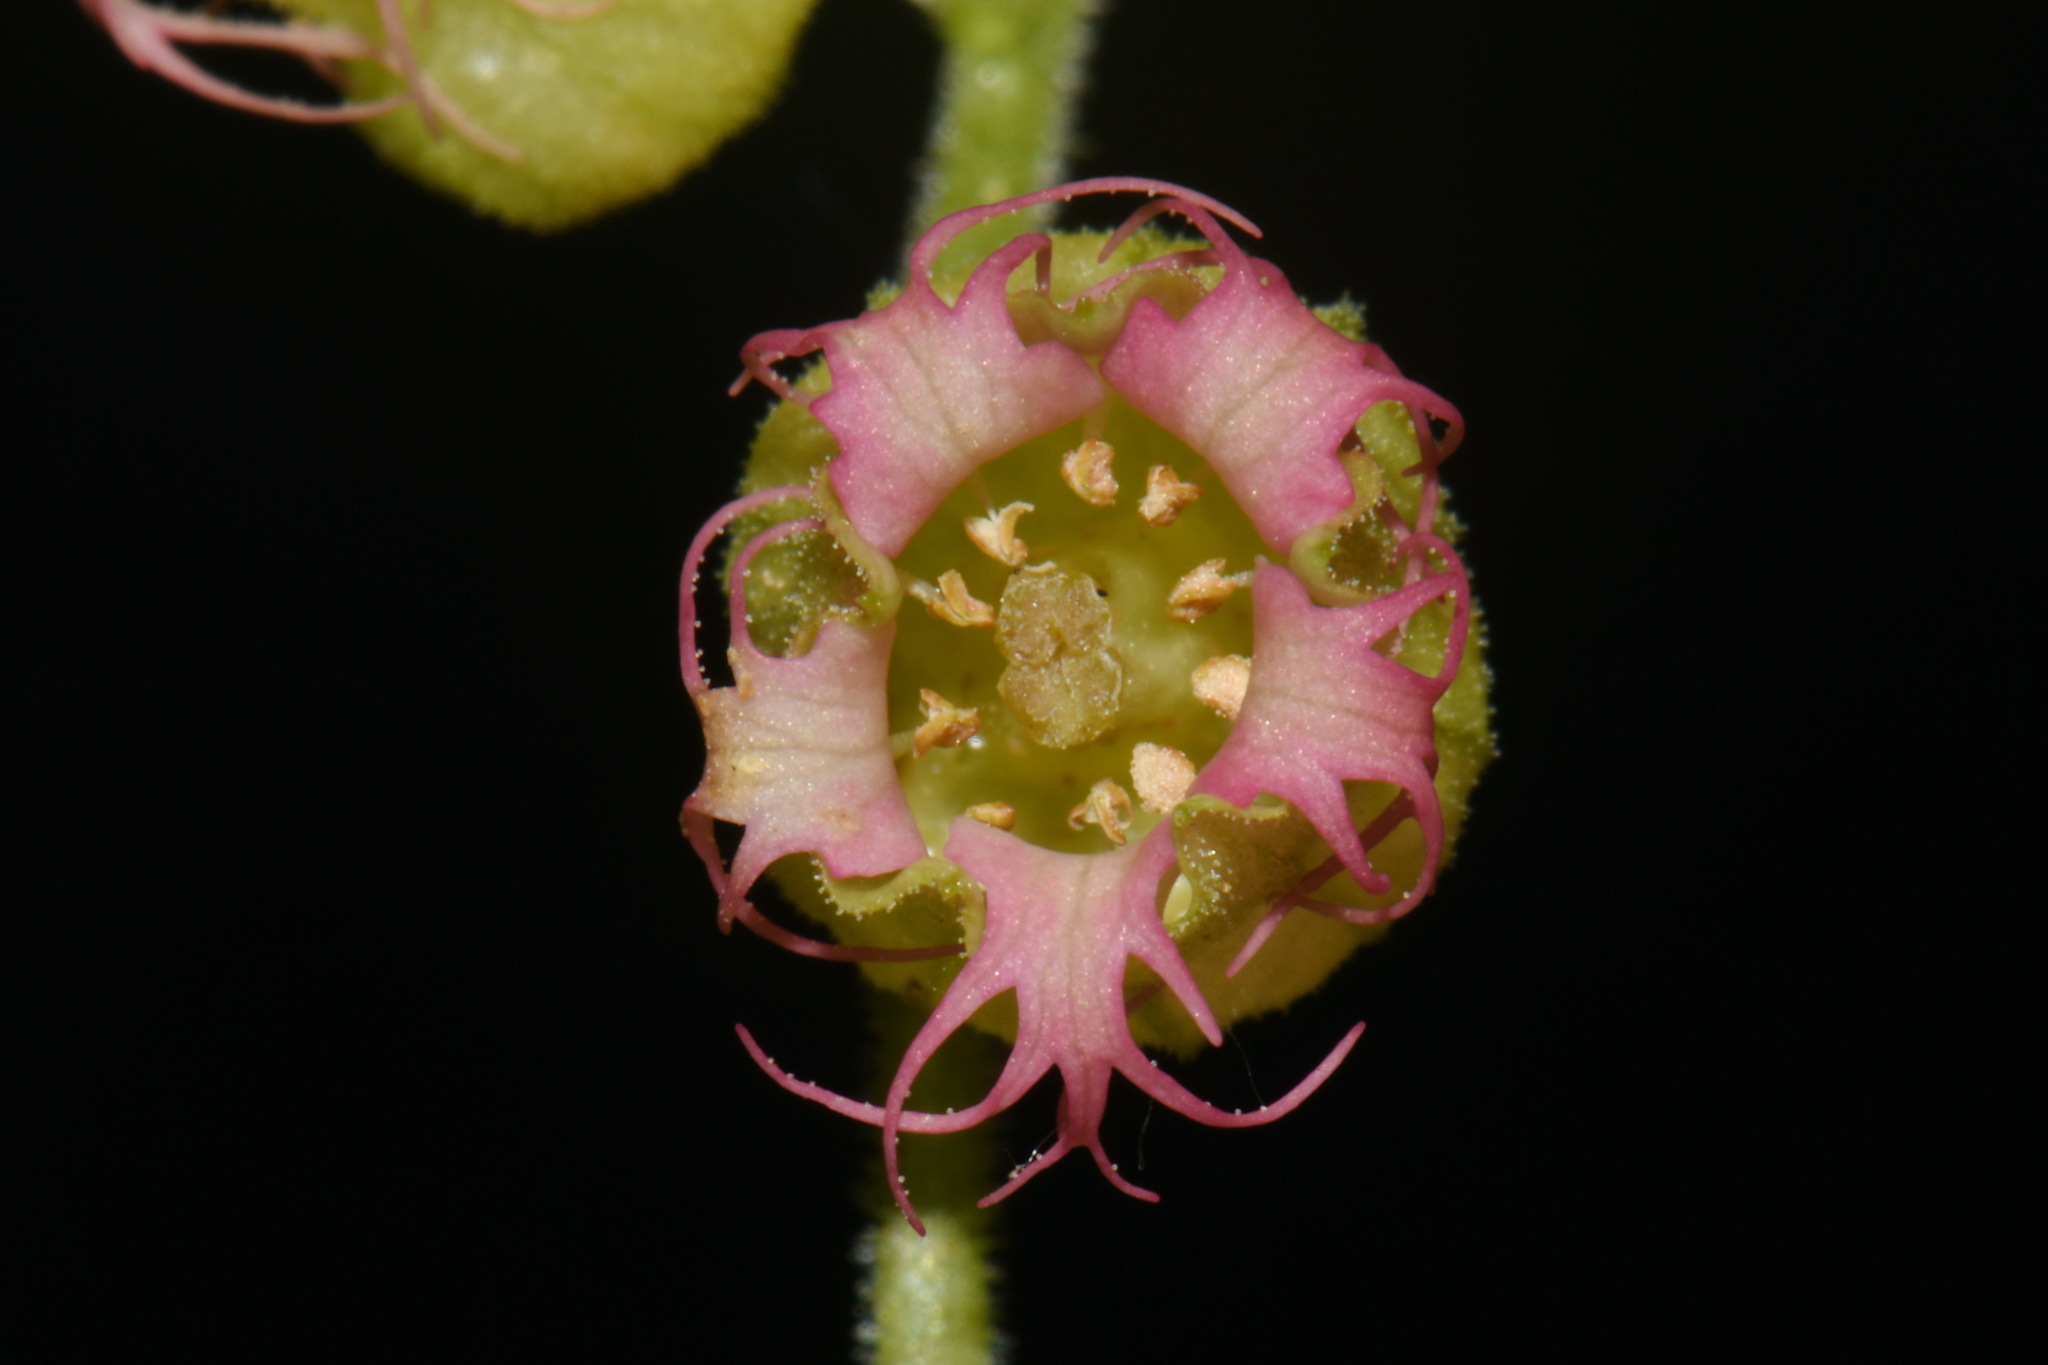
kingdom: Plantae
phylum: Tracheophyta
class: Magnoliopsida
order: Saxifragales
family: Saxifragaceae
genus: Tellima
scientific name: Tellima grandiflora
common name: Fringecups
